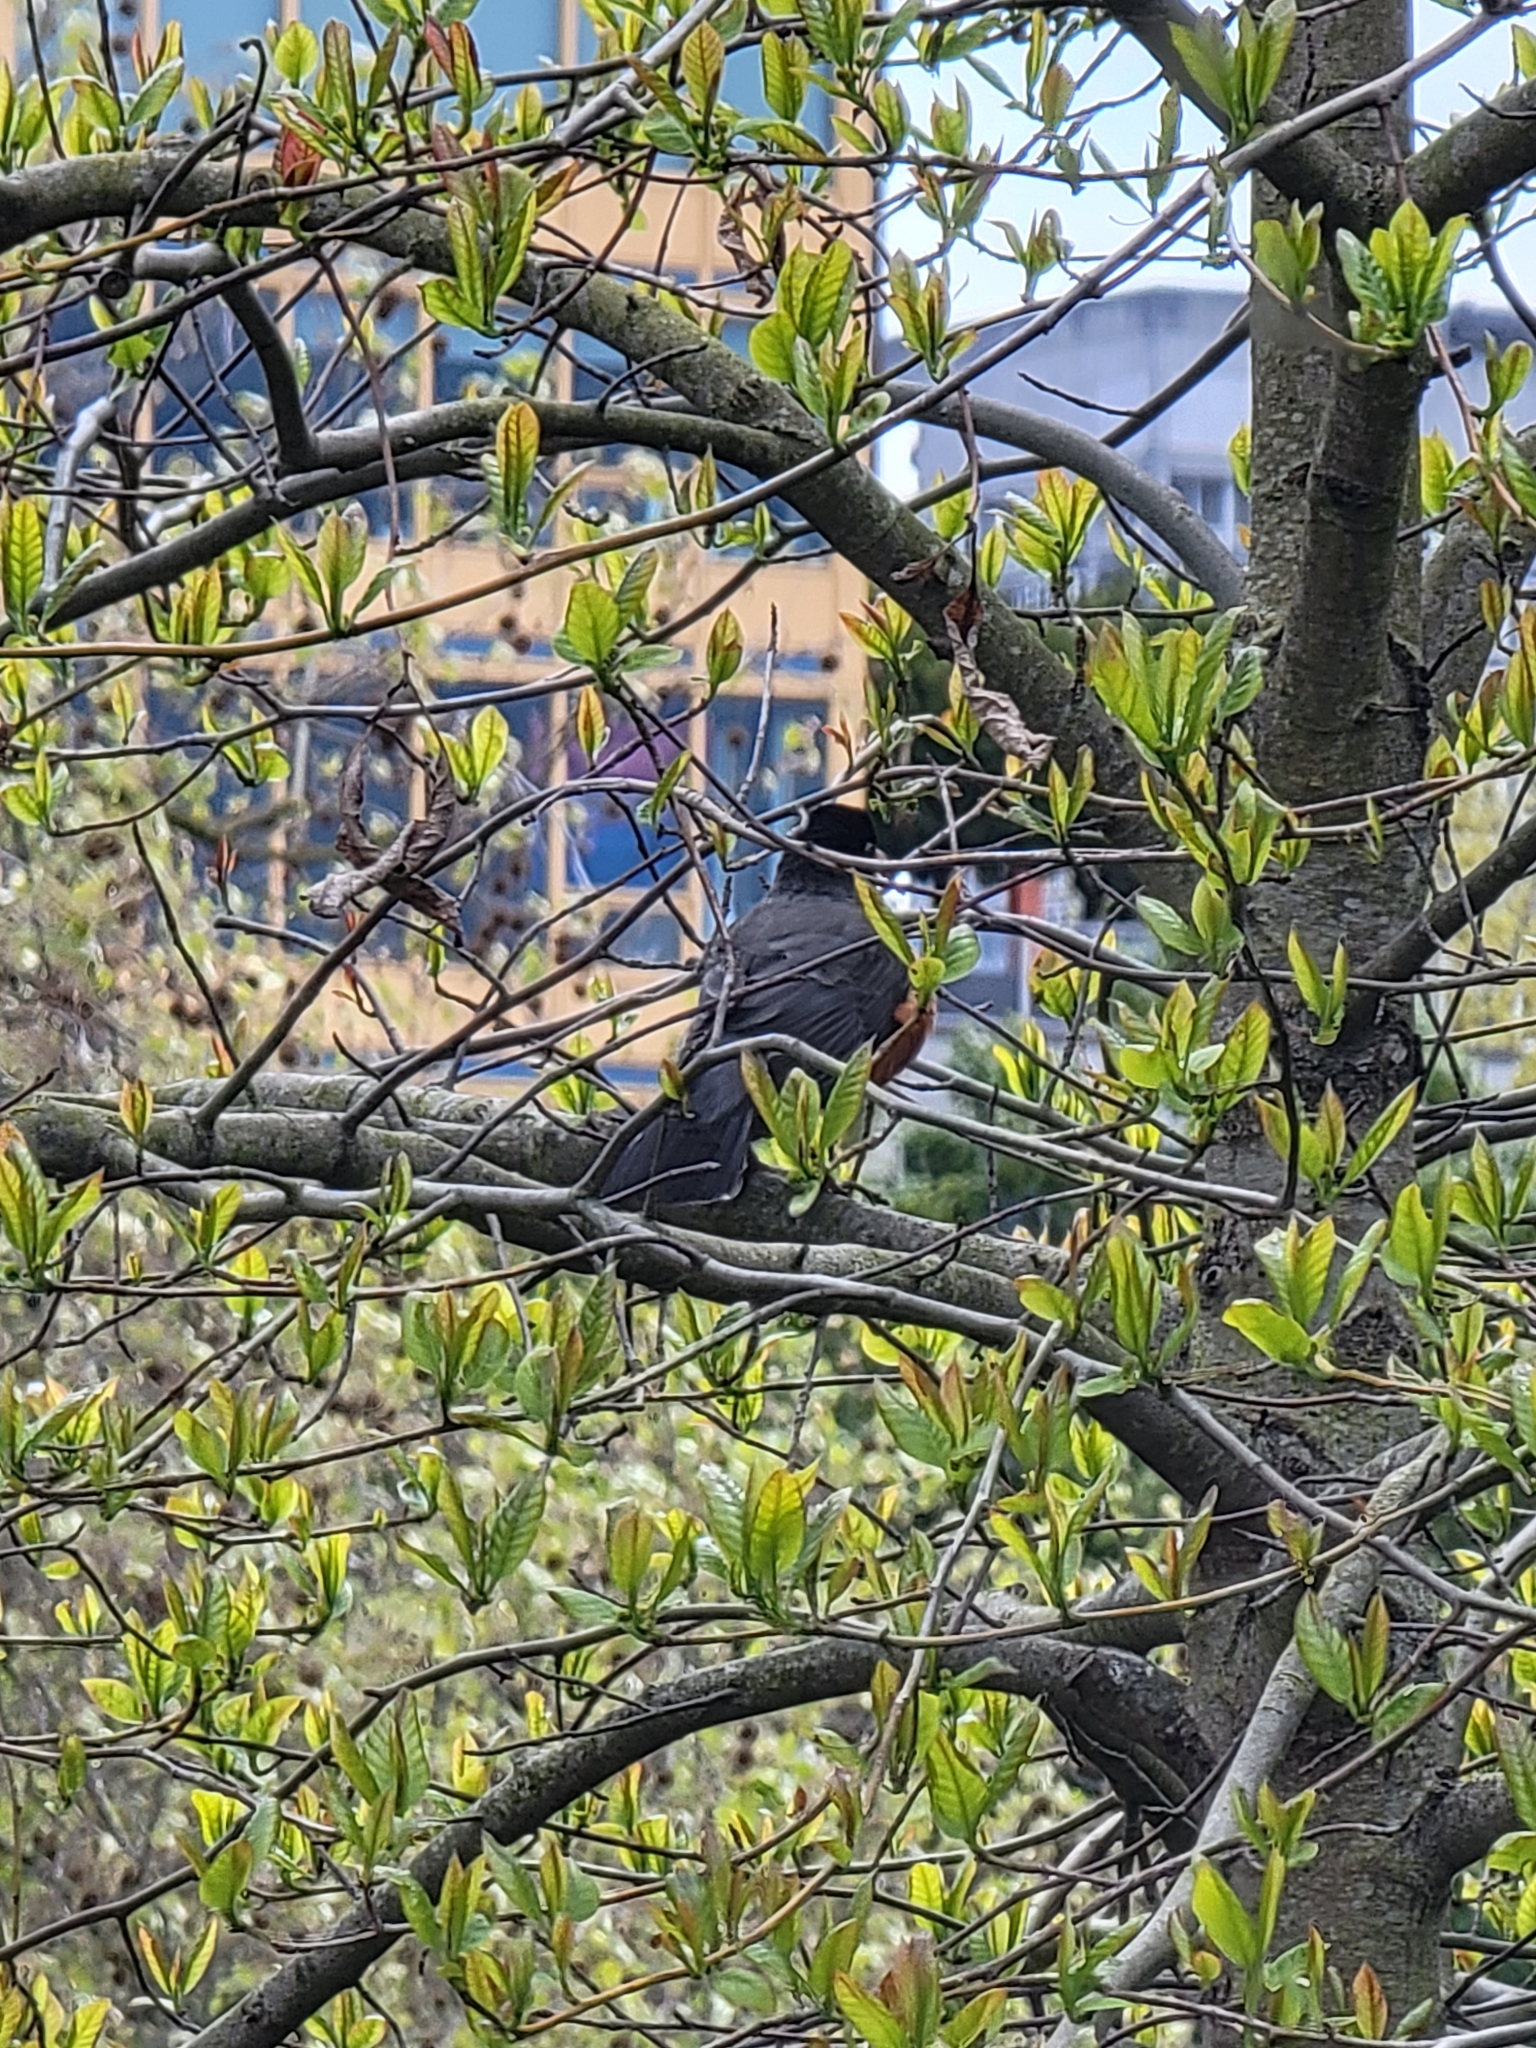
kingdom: Animalia
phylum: Chordata
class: Aves
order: Passeriformes
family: Turdidae
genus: Turdus
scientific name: Turdus migratorius
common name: American robin
